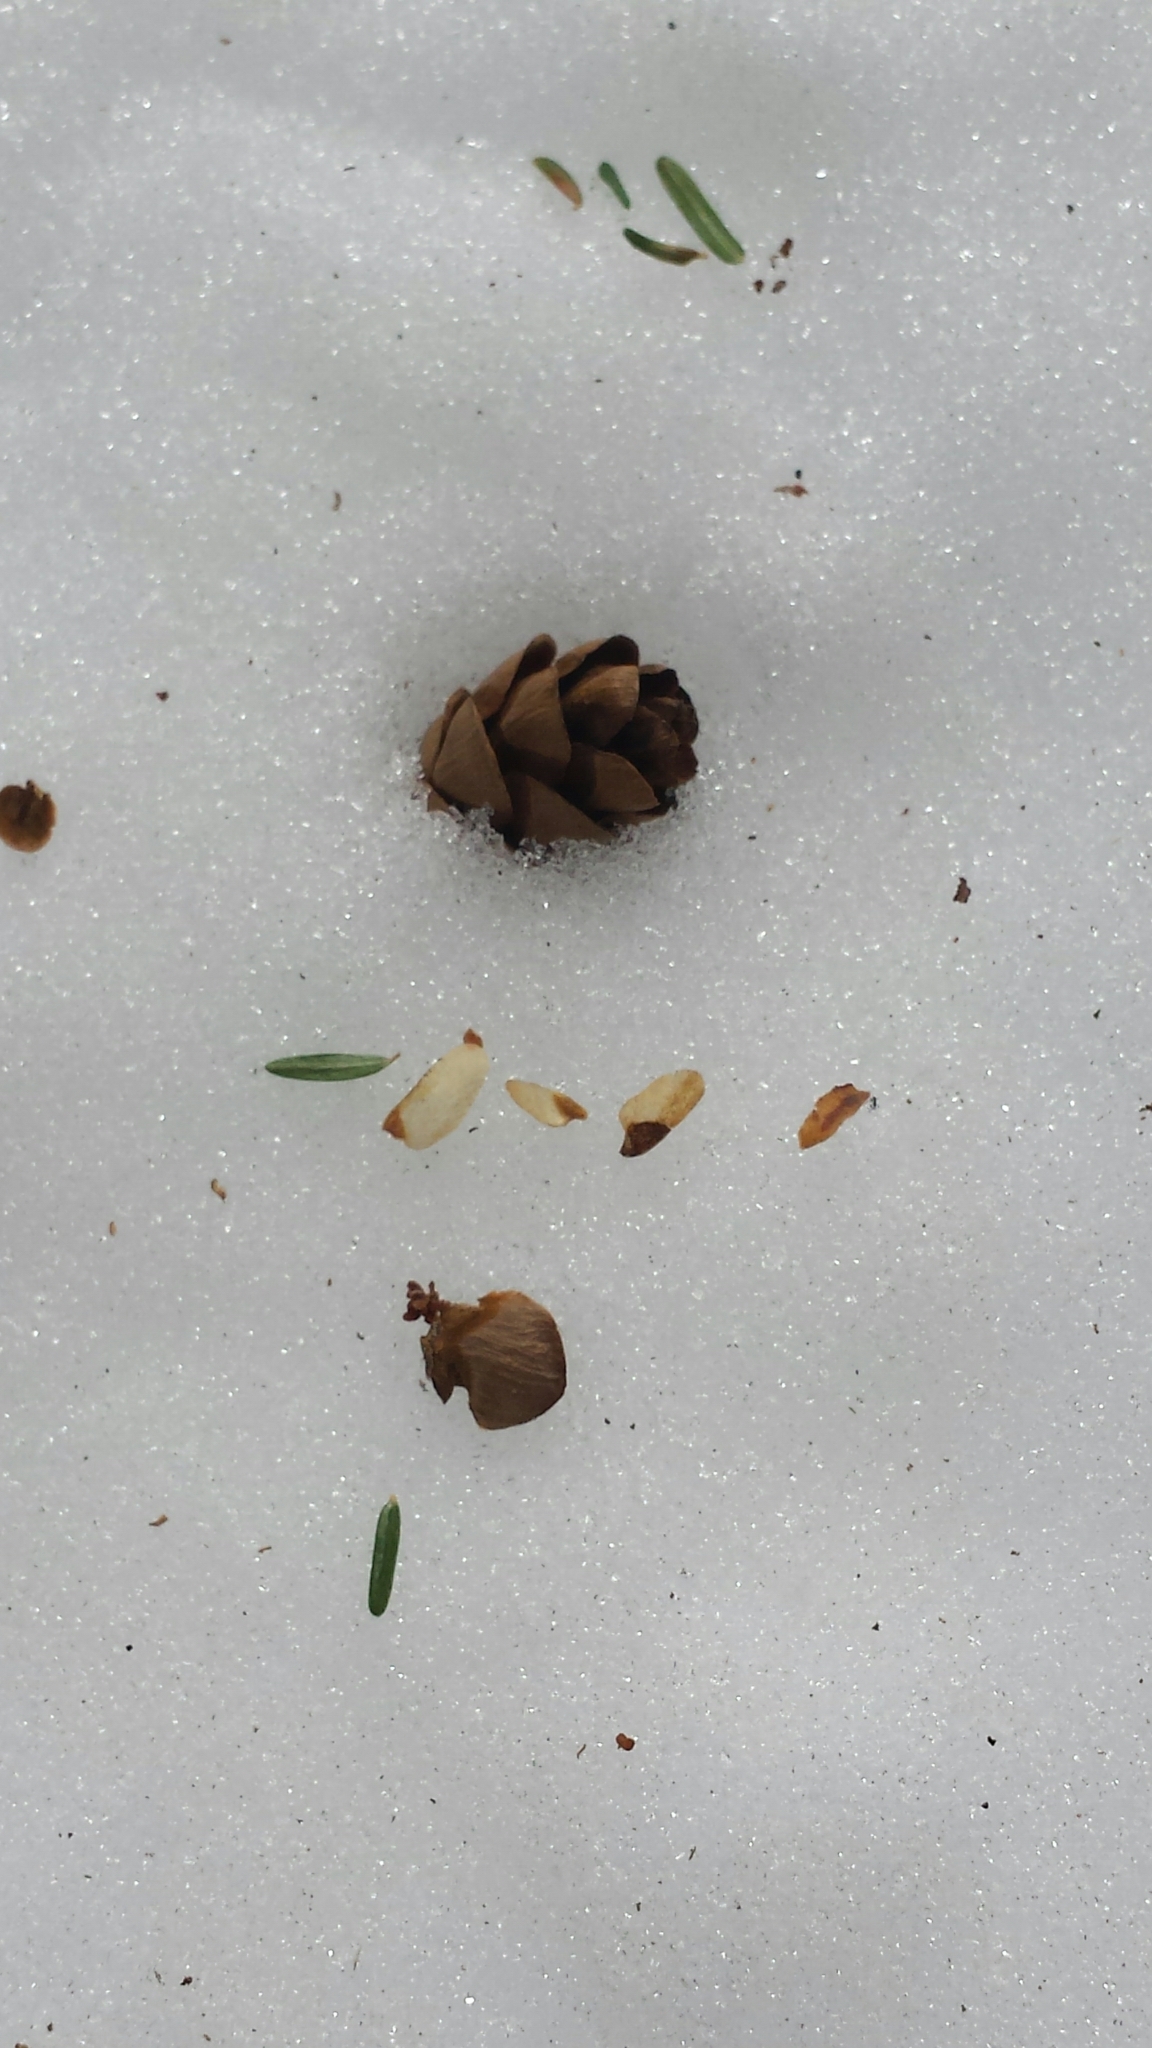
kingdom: Plantae
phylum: Tracheophyta
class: Pinopsida
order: Pinales
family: Pinaceae
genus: Tsuga
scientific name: Tsuga canadensis
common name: Eastern hemlock
